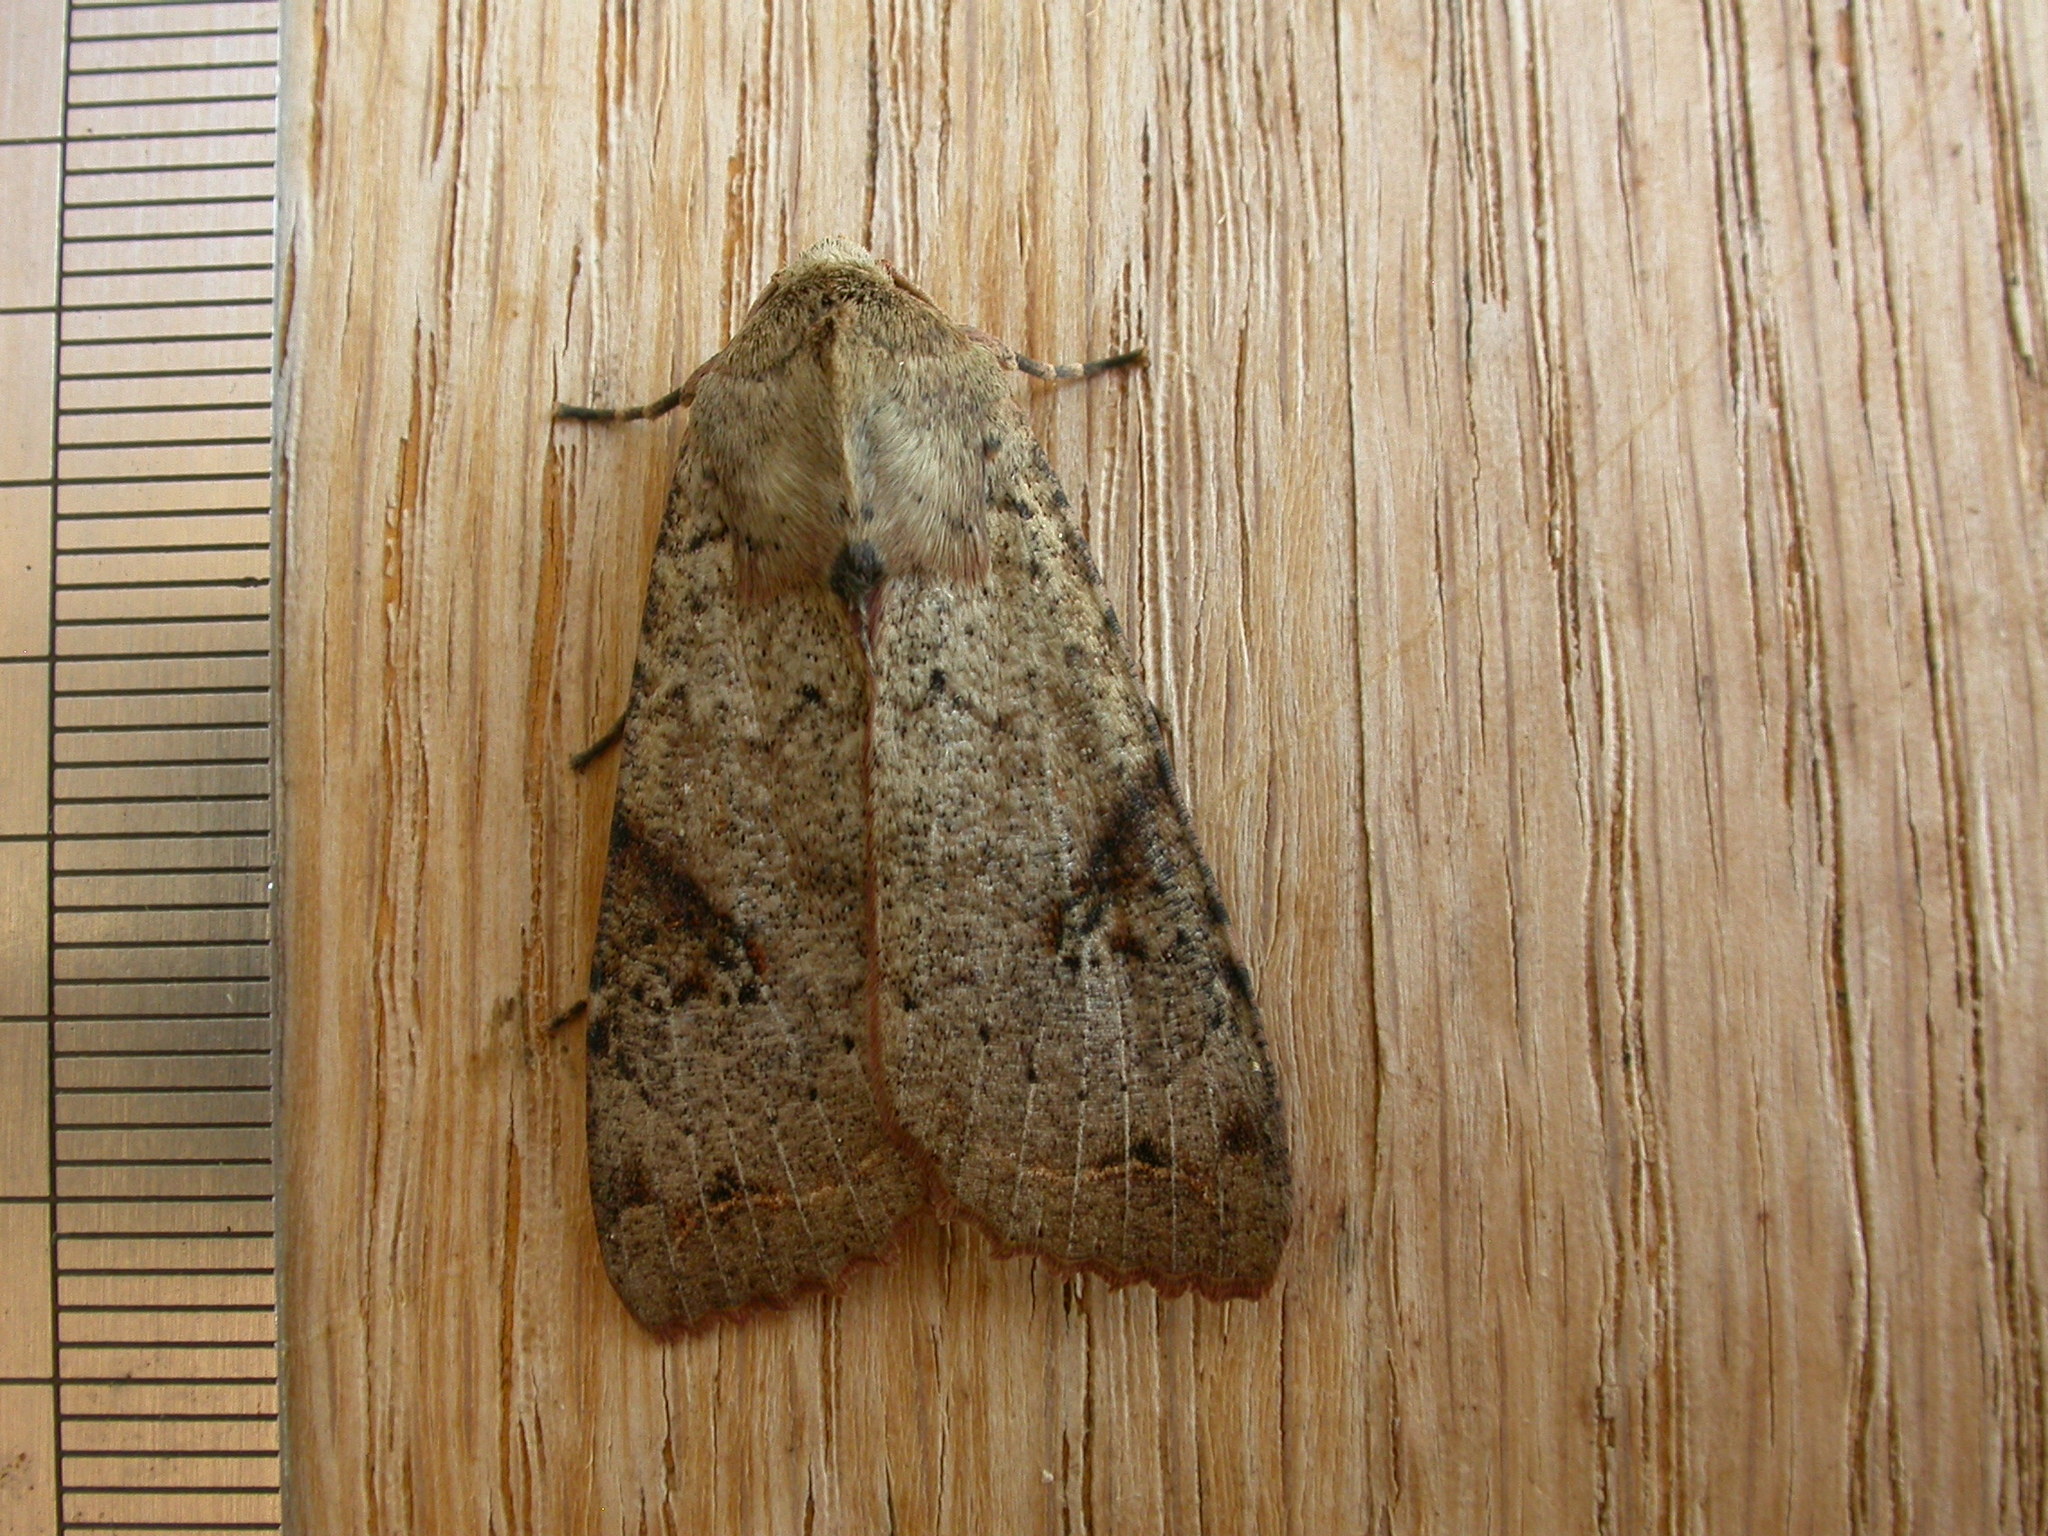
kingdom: Animalia
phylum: Arthropoda
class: Insecta
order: Lepidoptera
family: Noctuidae
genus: Tiracola
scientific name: Tiracola plagiata
